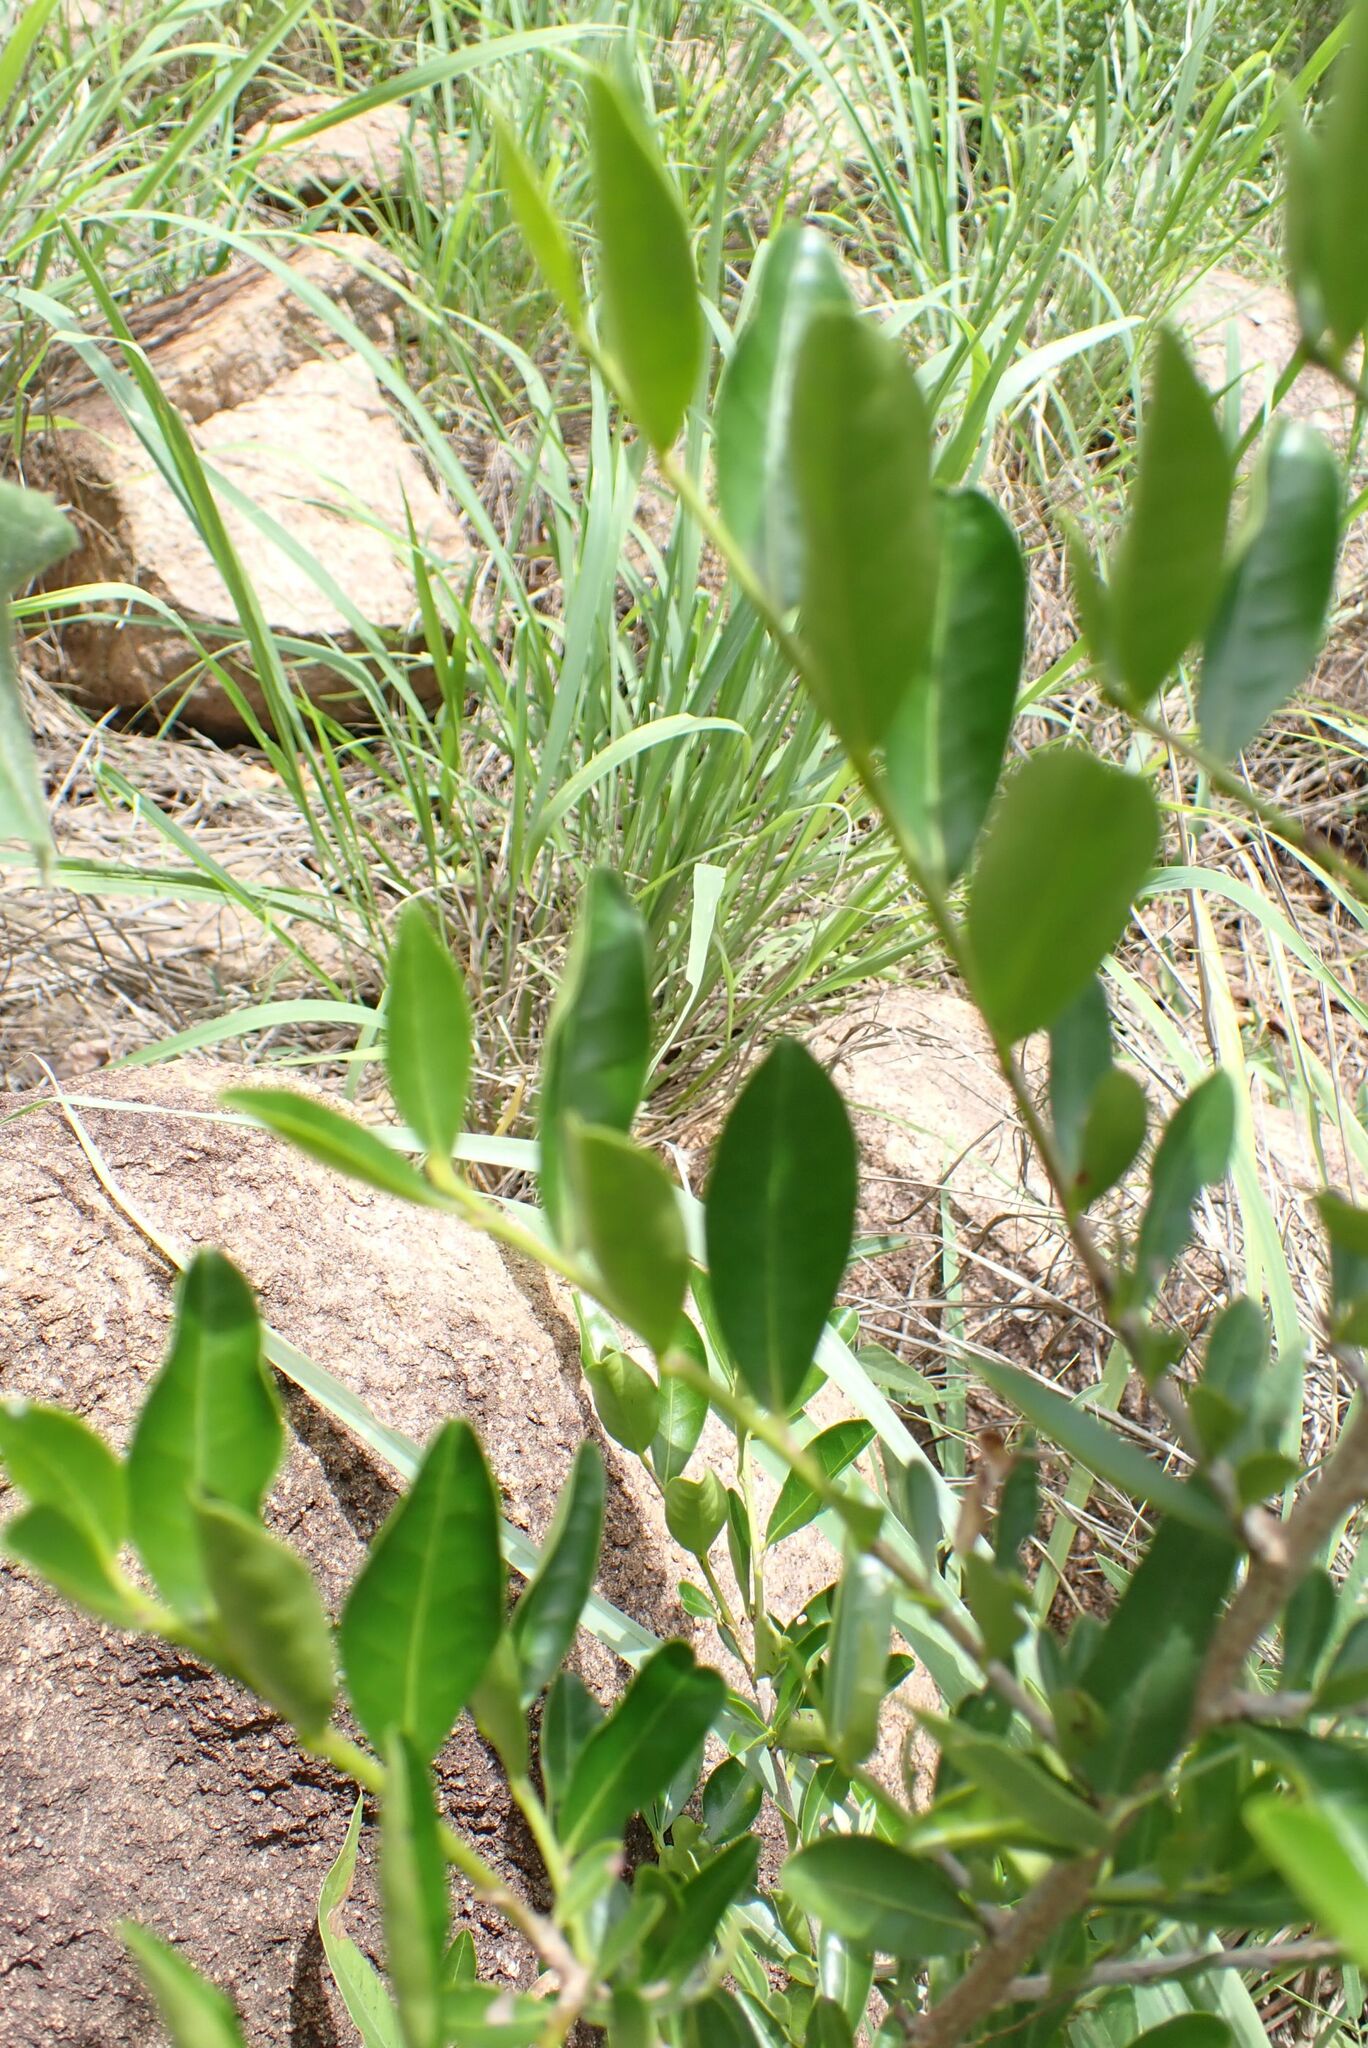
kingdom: Plantae
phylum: Tracheophyta
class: Magnoliopsida
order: Malpighiales
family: Erythroxylaceae
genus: Erythroxylum
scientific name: Erythroxylum emarginatum
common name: African coca-tree
